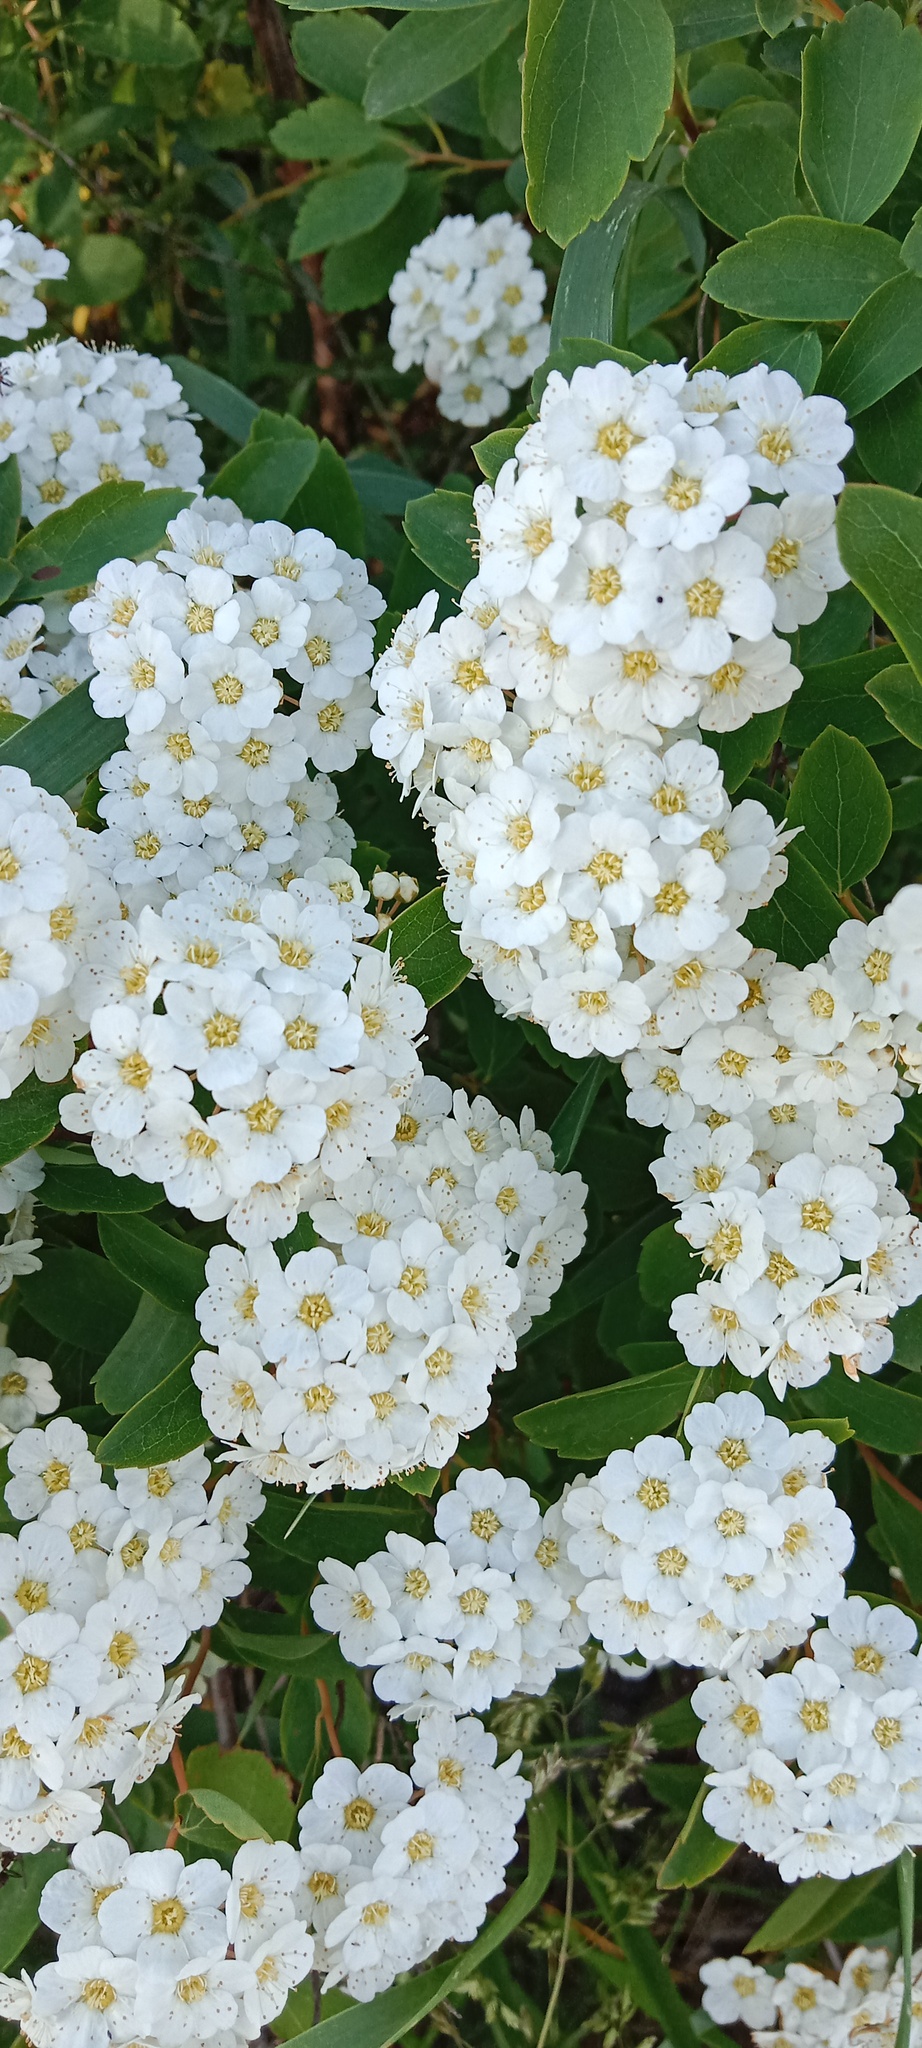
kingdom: Plantae
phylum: Tracheophyta
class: Magnoliopsida
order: Asterales
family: Asteraceae
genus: Achillea
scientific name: Achillea millefolium
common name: Yarrow
